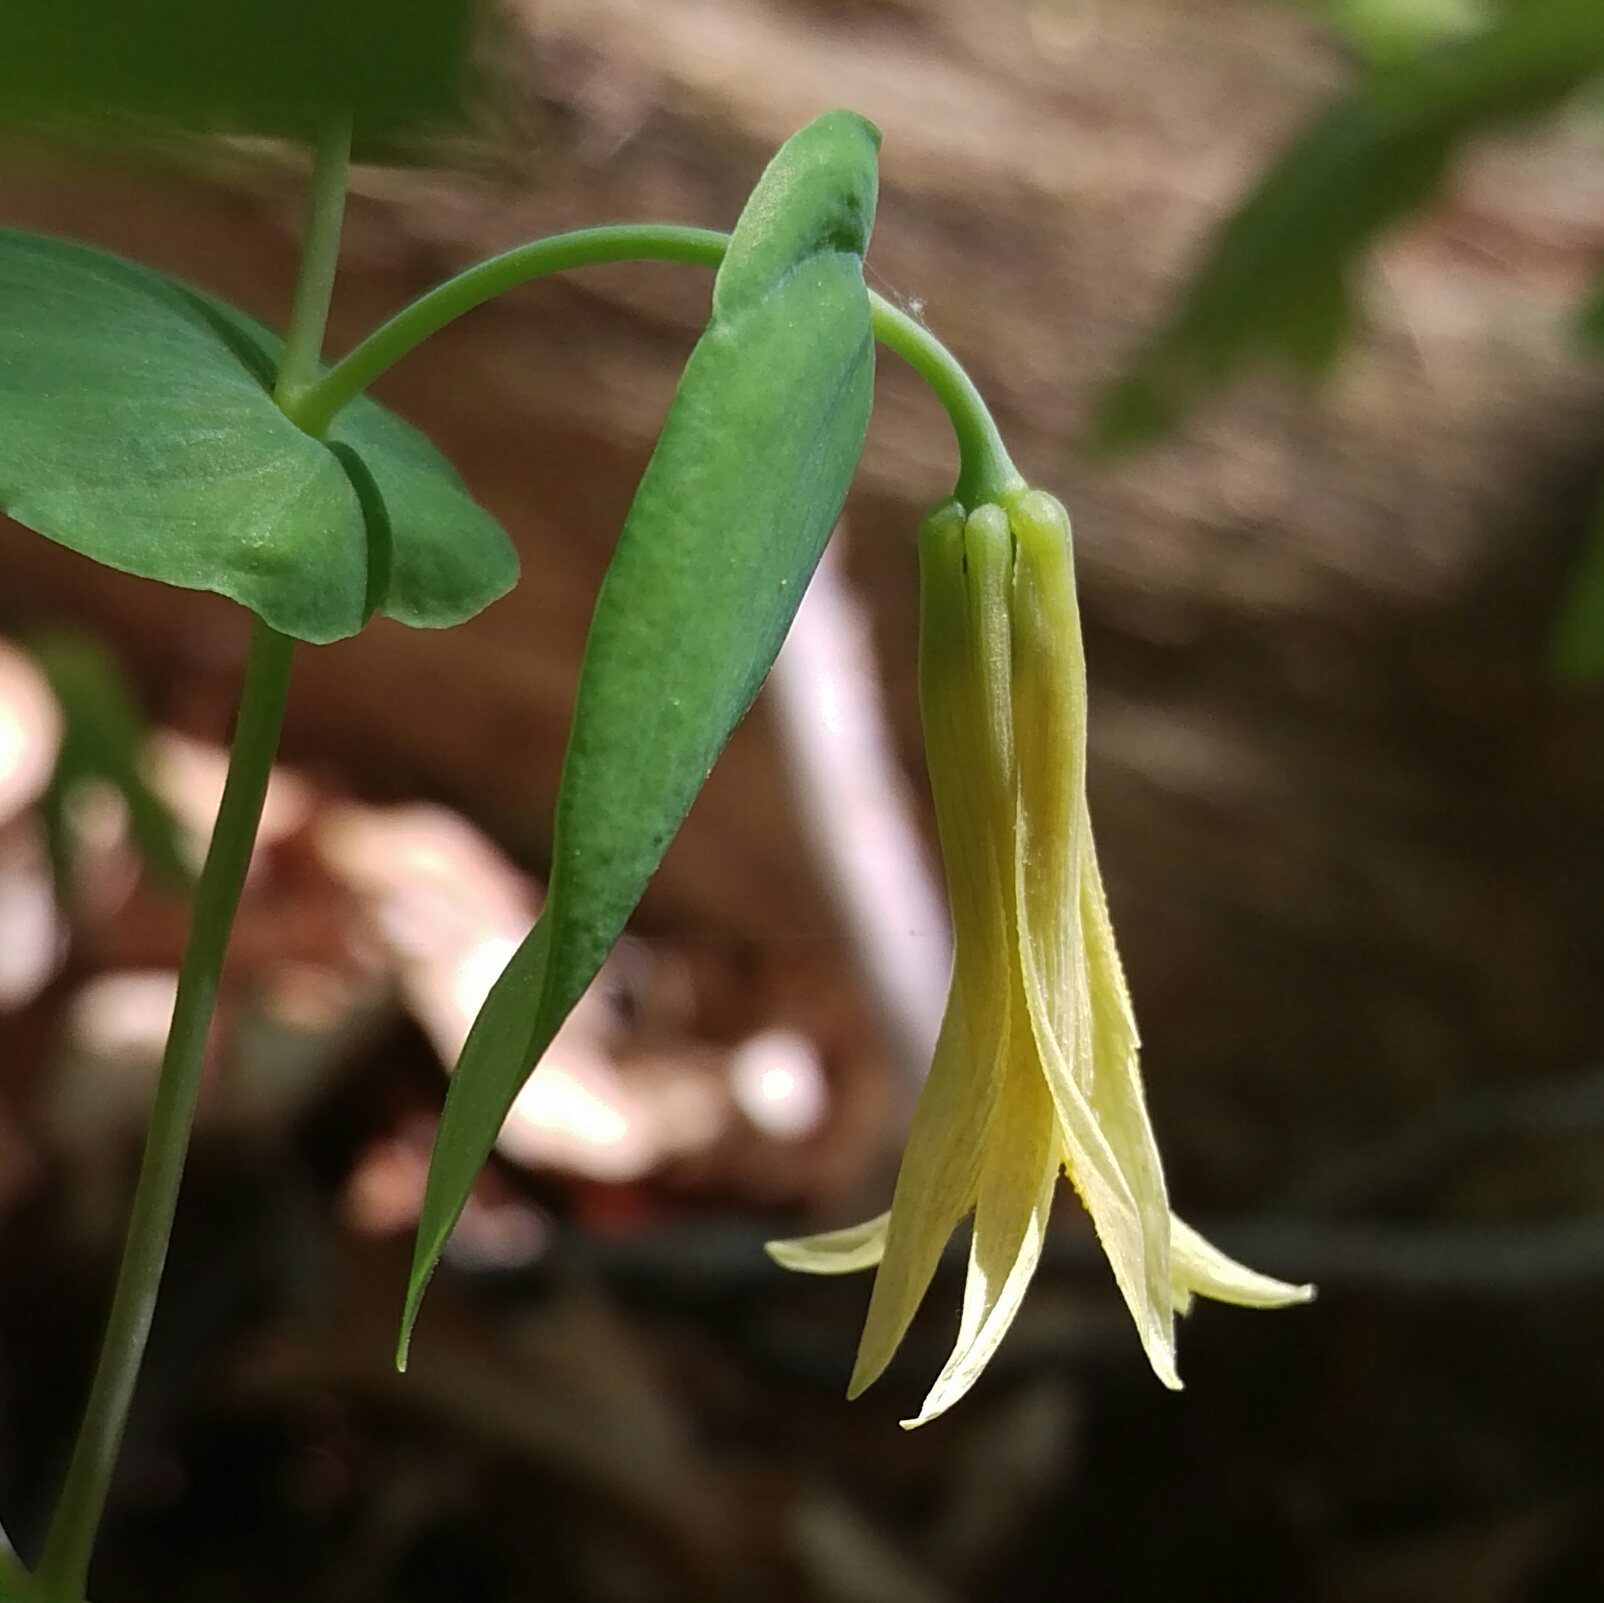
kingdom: Plantae
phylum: Tracheophyta
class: Liliopsida
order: Liliales
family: Colchicaceae
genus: Uvularia
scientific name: Uvularia perfoliata
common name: Perfoliate bellwort
